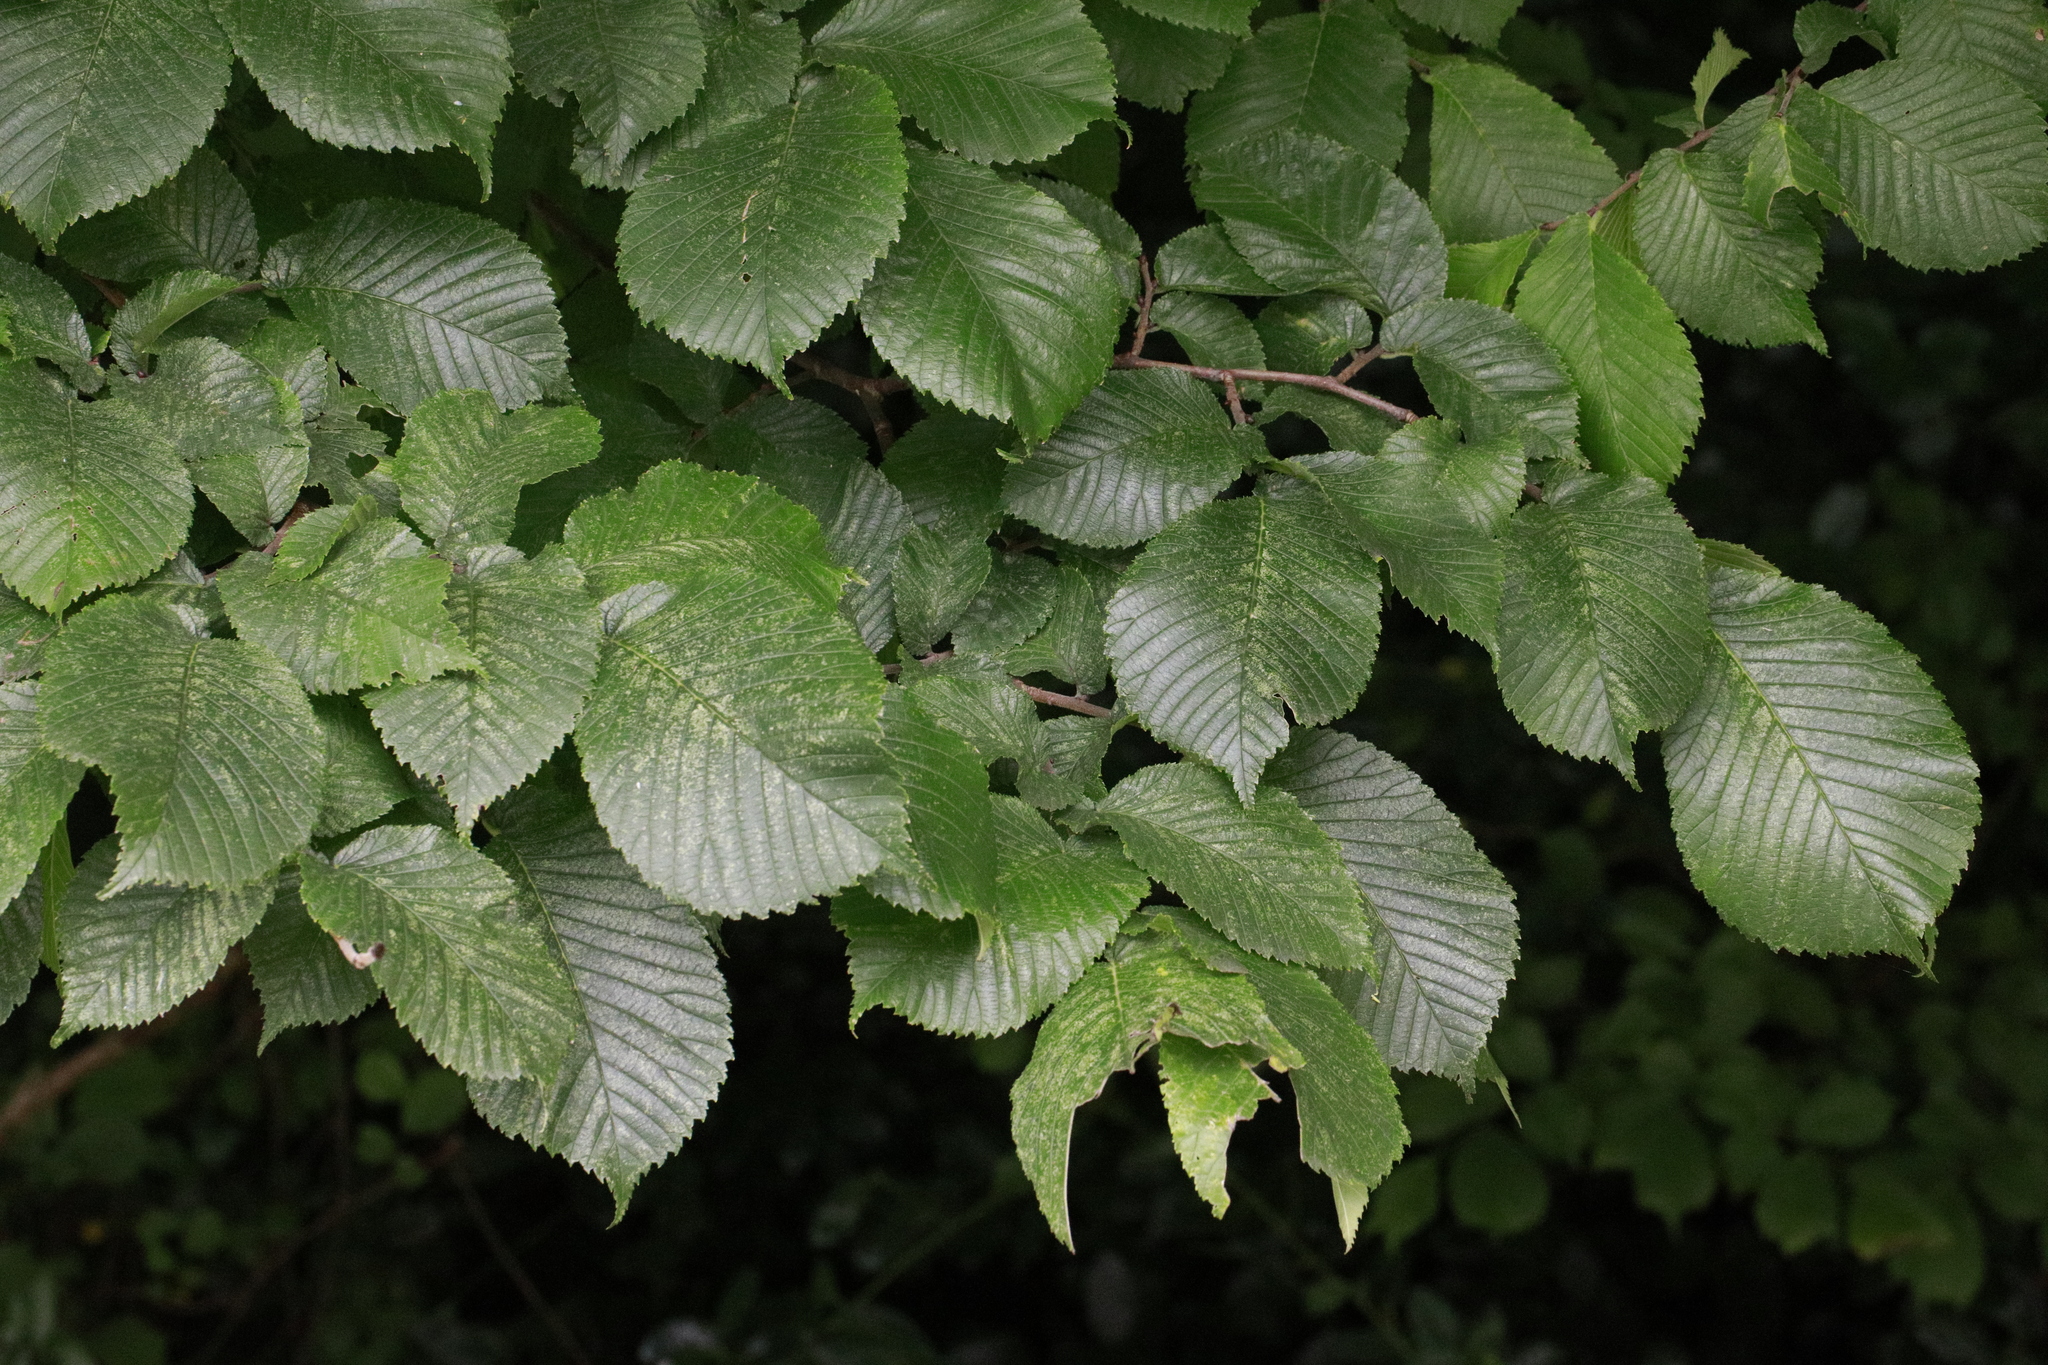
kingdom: Plantae
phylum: Tracheophyta
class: Magnoliopsida
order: Rosales
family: Ulmaceae
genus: Ulmus
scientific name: Ulmus glabra
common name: Wych elm
